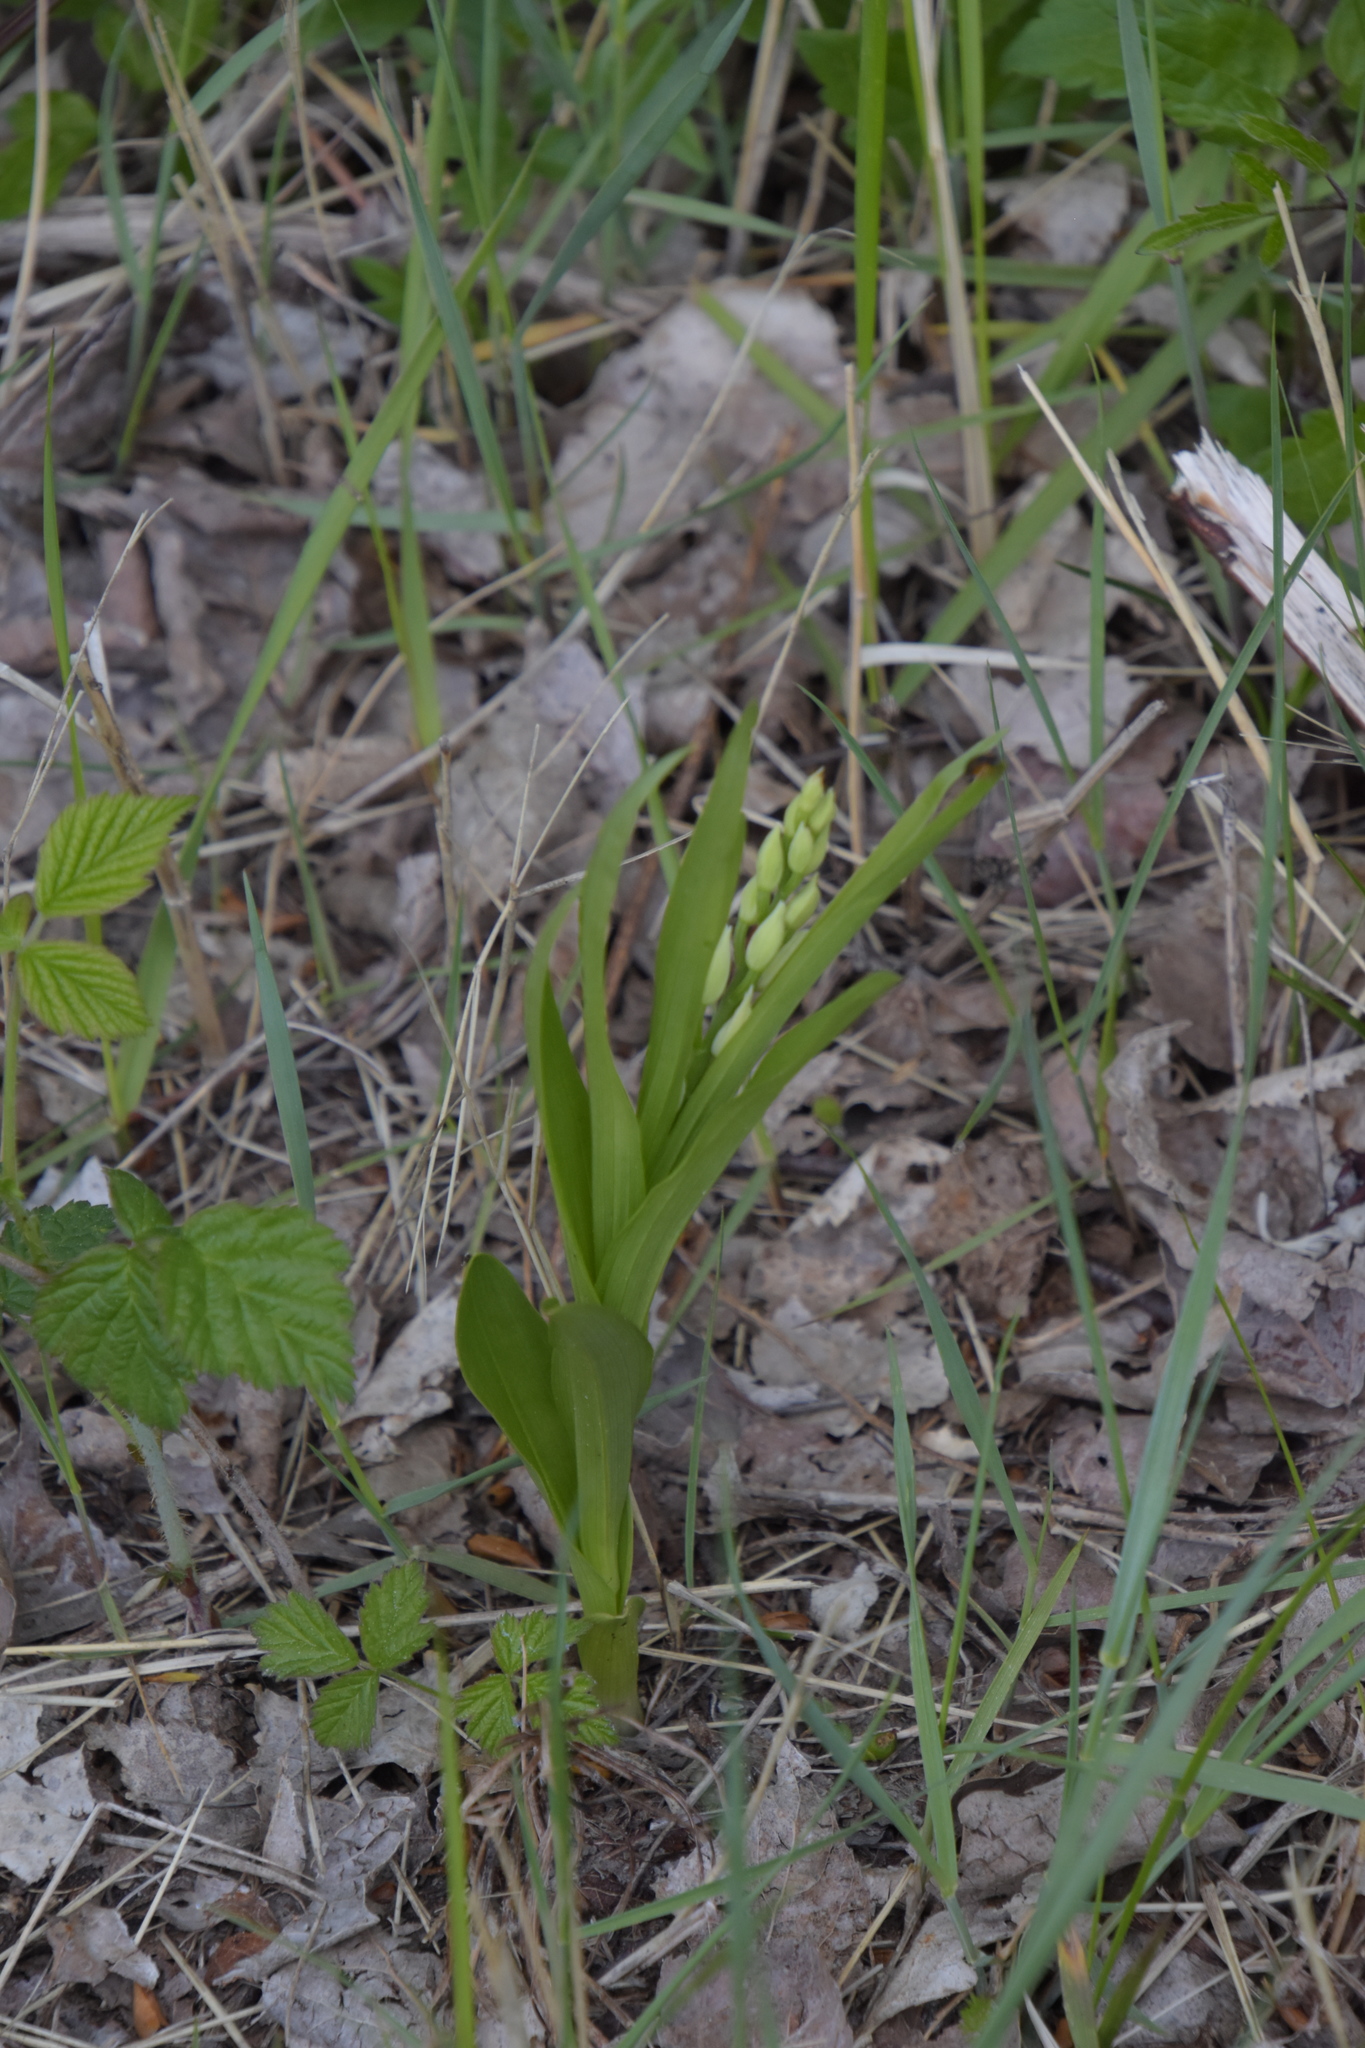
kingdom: Plantae
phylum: Tracheophyta
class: Liliopsida
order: Asparagales
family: Orchidaceae
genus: Cephalanthera
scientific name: Cephalanthera longifolia
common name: Narrow-leaved helleborine
